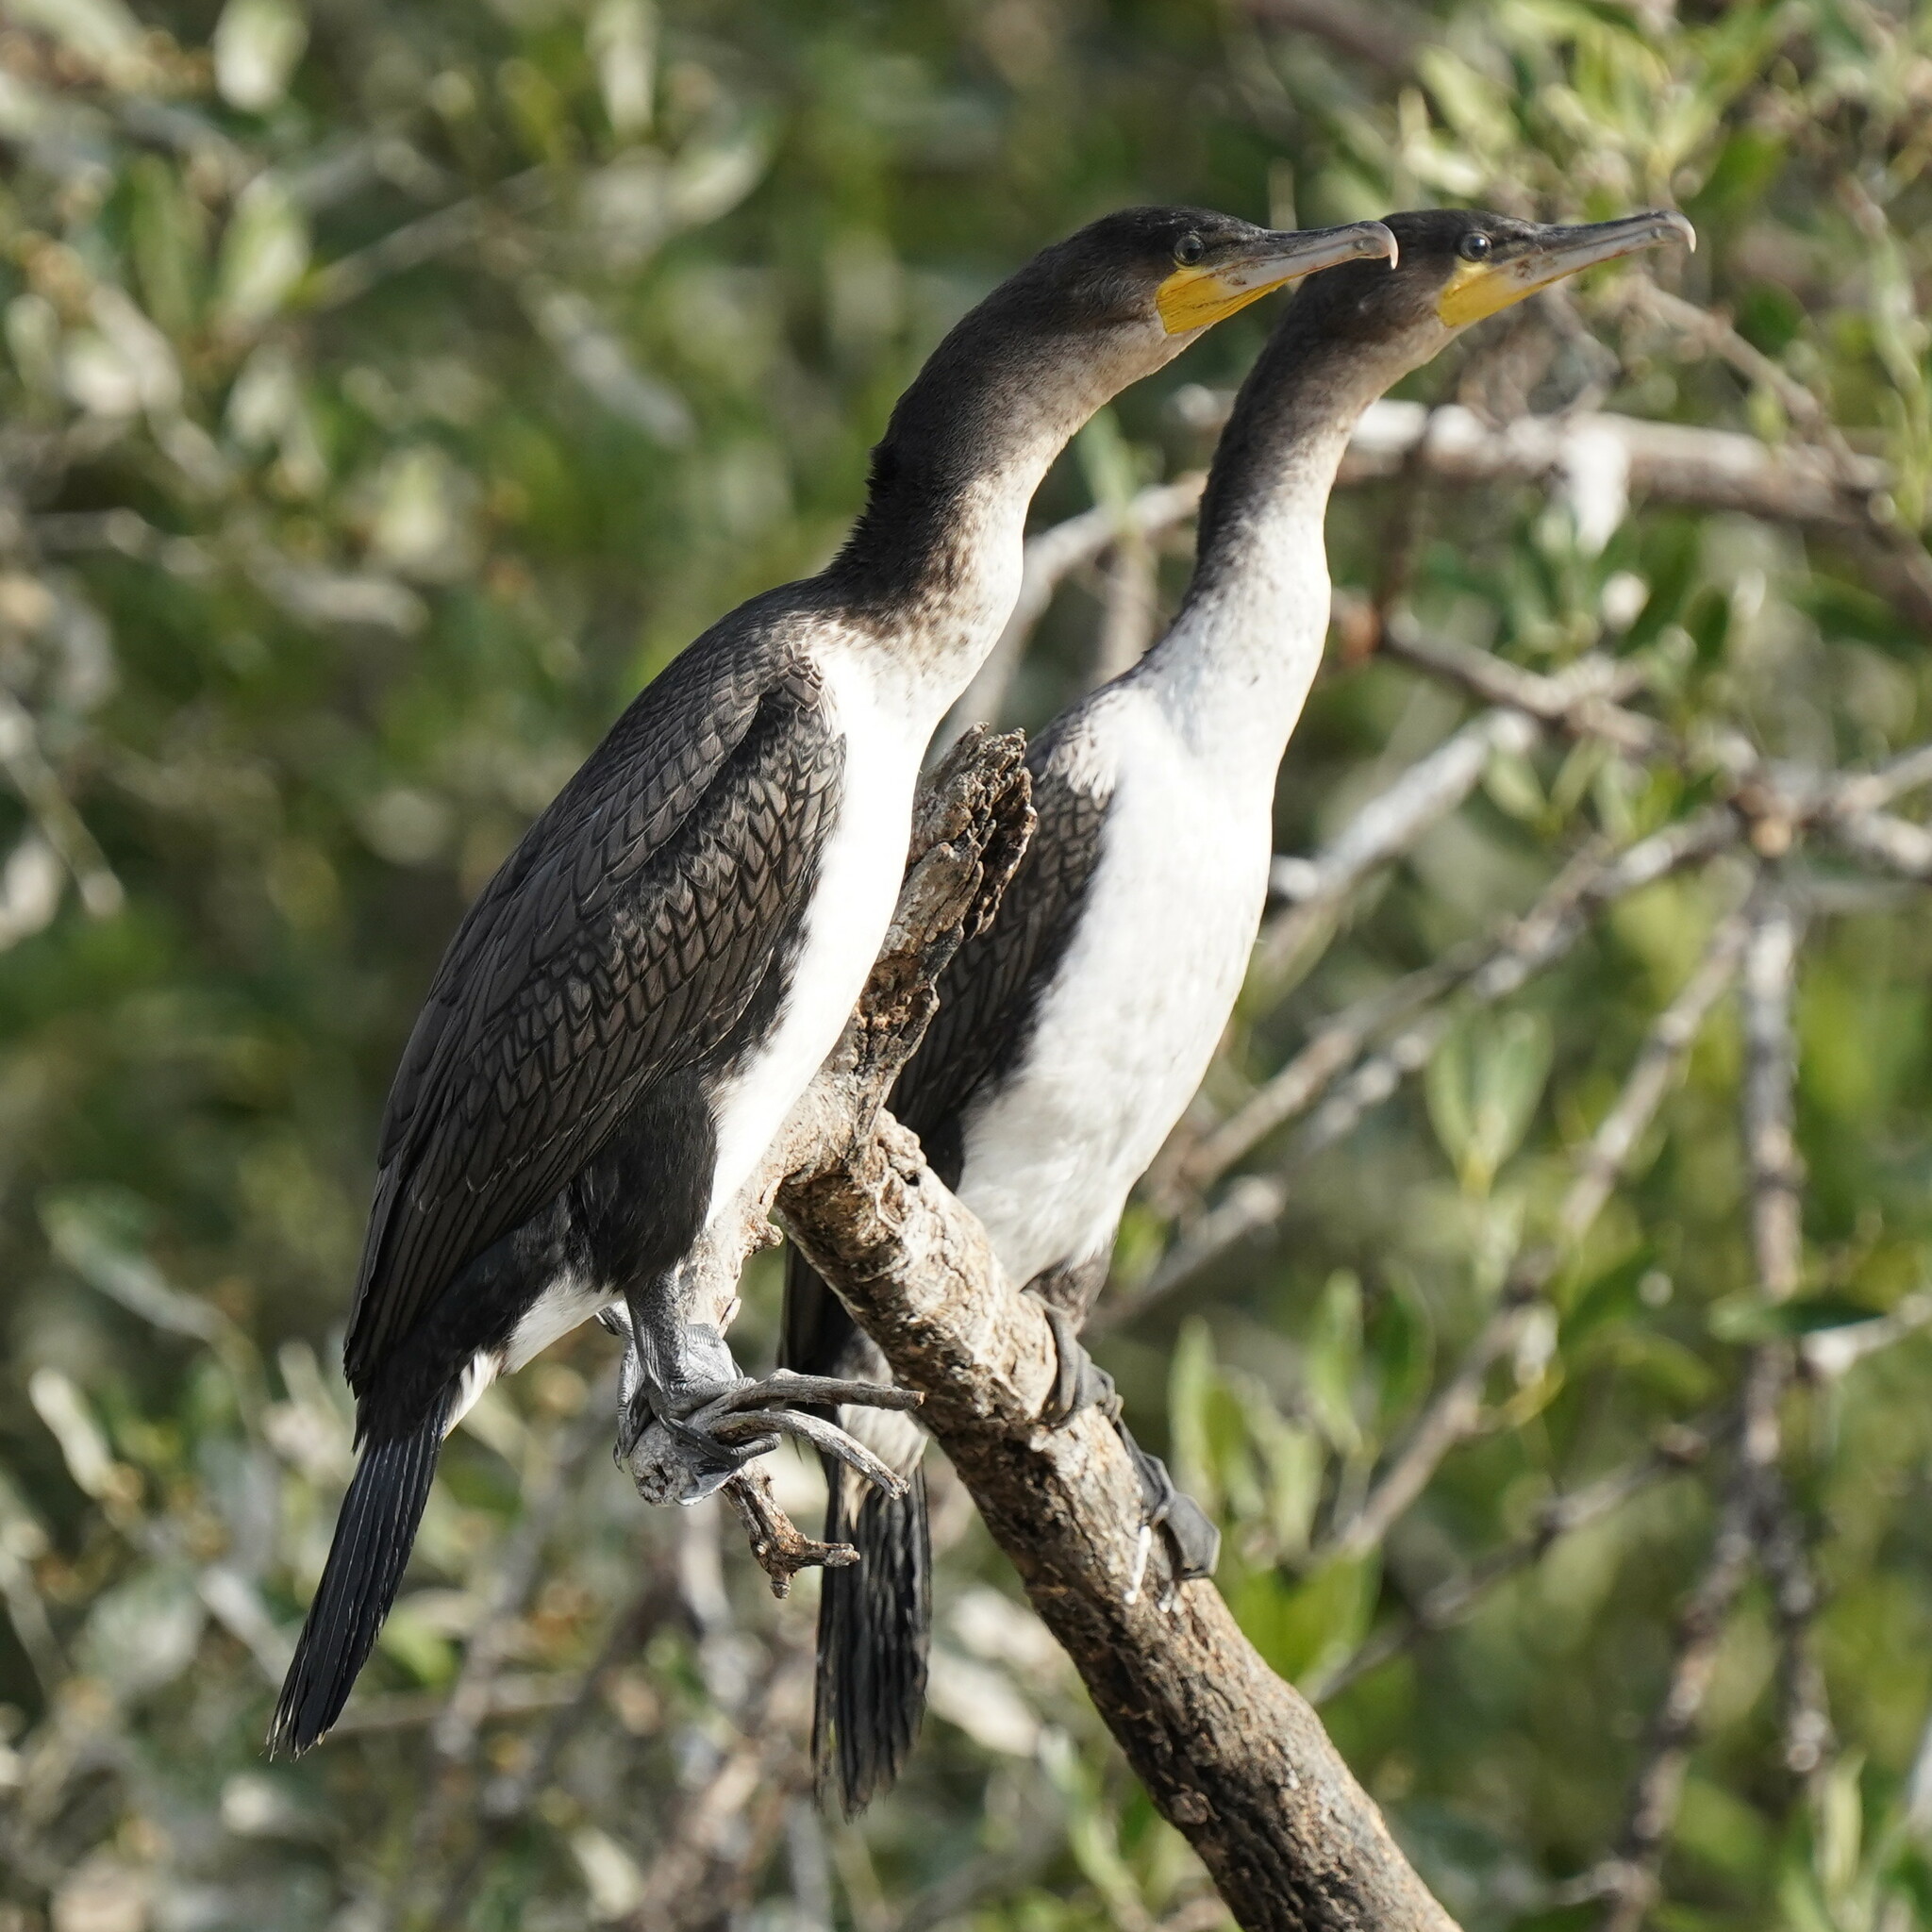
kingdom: Animalia
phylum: Chordata
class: Aves
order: Suliformes
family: Phalacrocoracidae
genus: Phalacrocorax
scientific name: Phalacrocorax carbo
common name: Great cormorant
